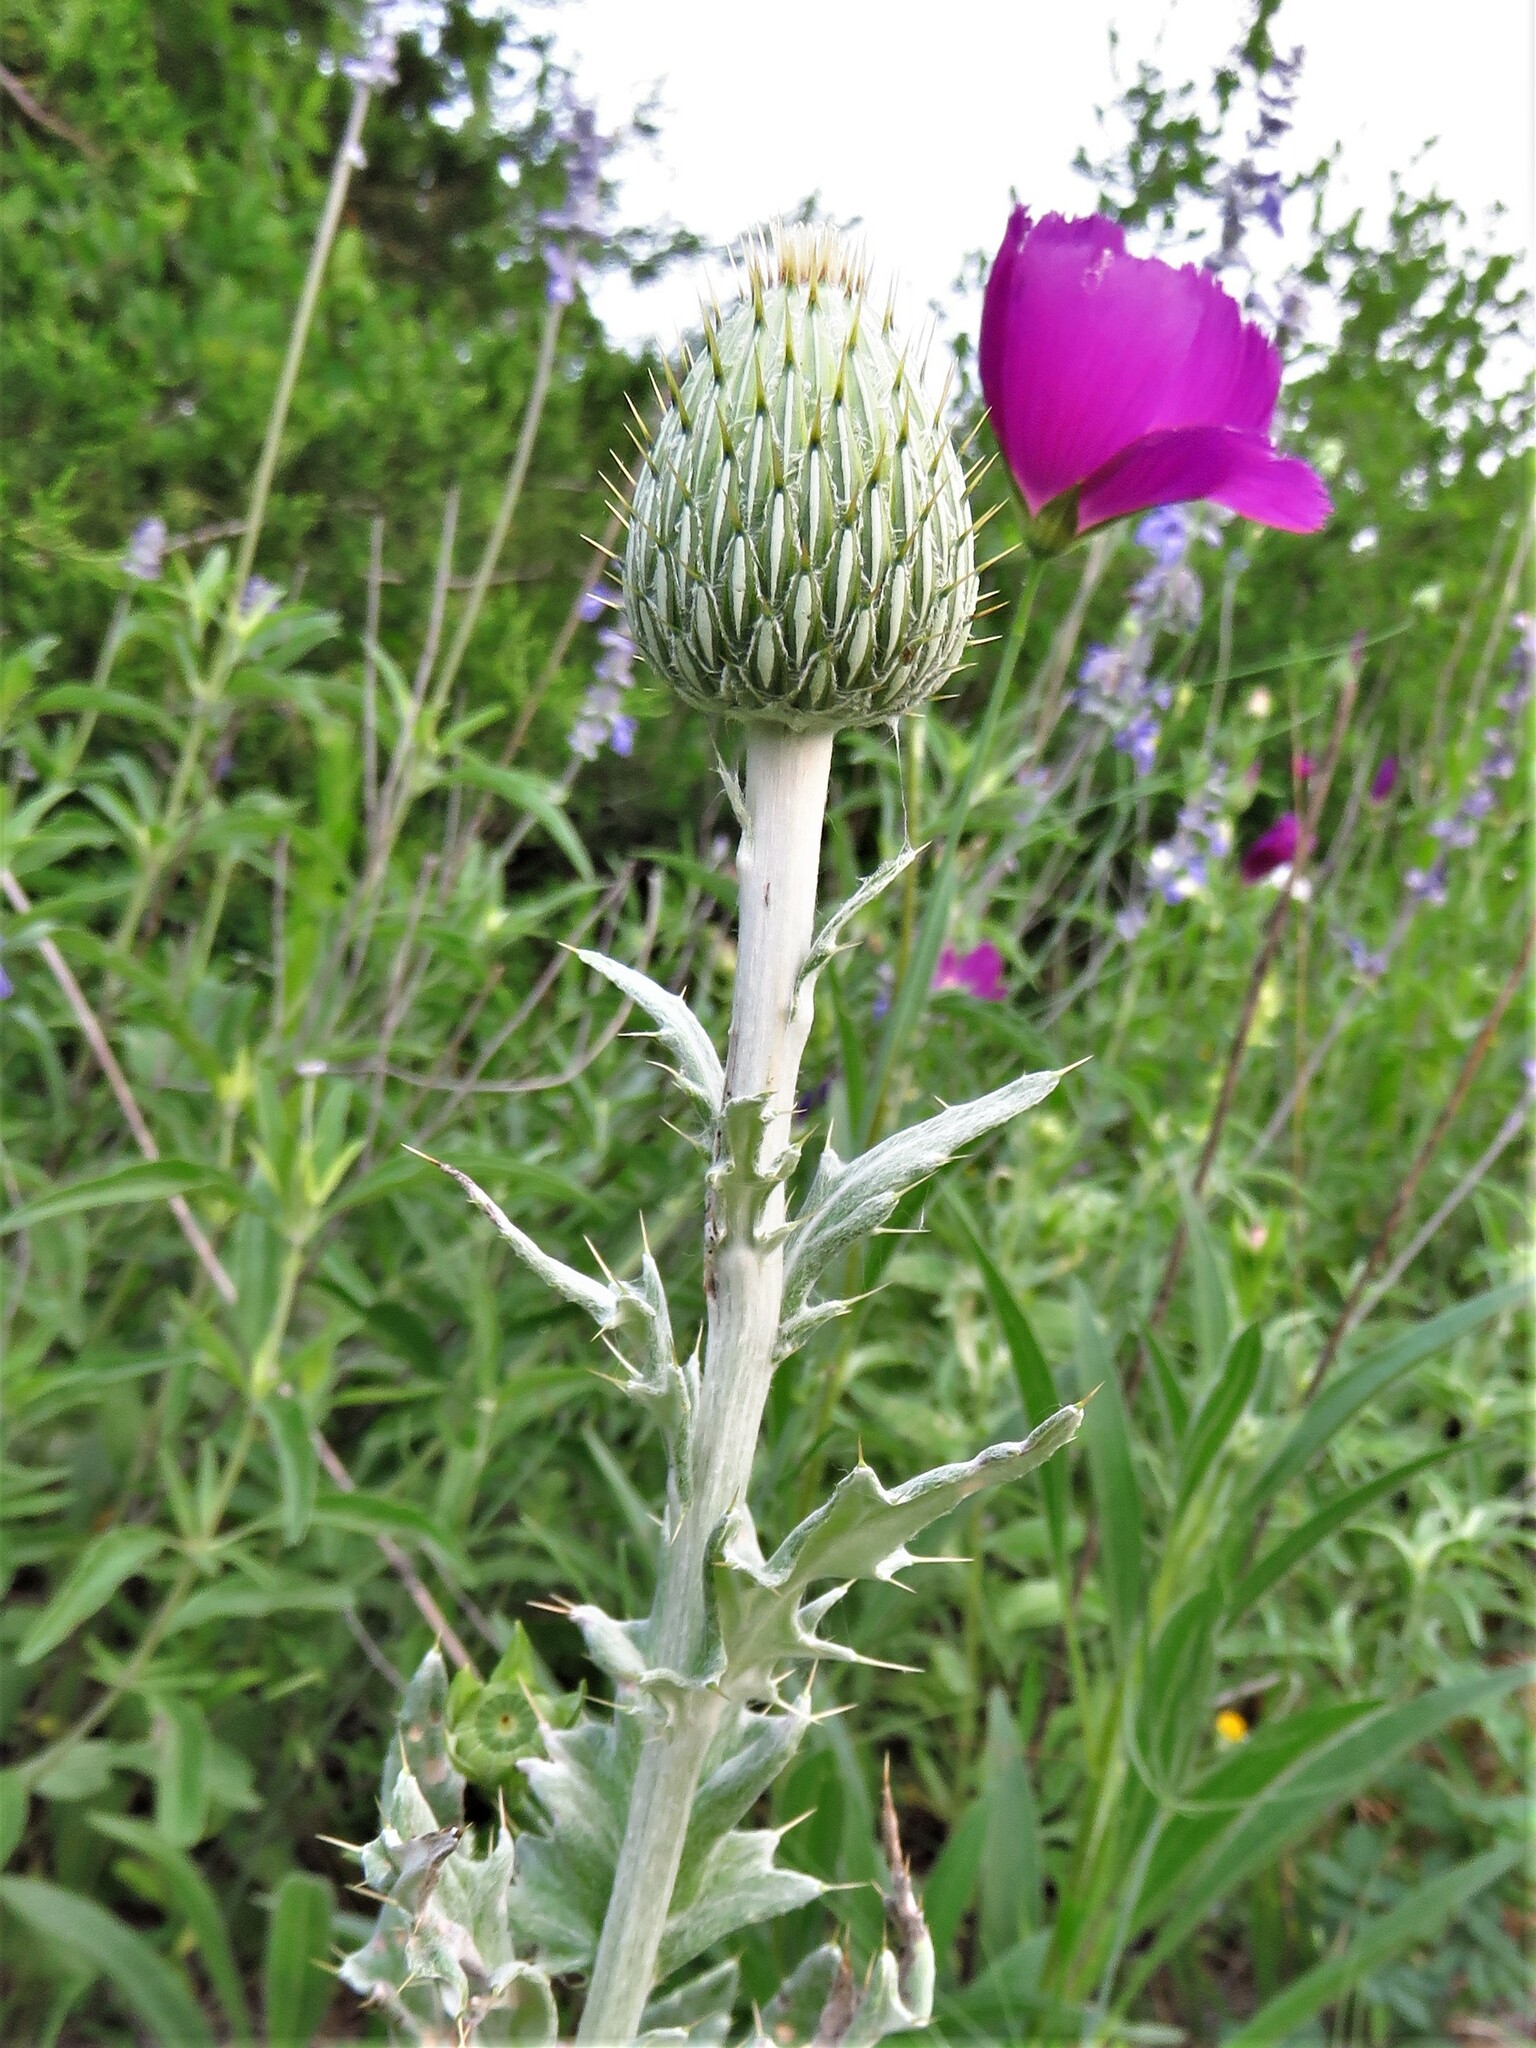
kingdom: Plantae
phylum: Tracheophyta
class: Magnoliopsida
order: Asterales
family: Asteraceae
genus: Cirsium
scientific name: Cirsium undulatum
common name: Pasture thistle
